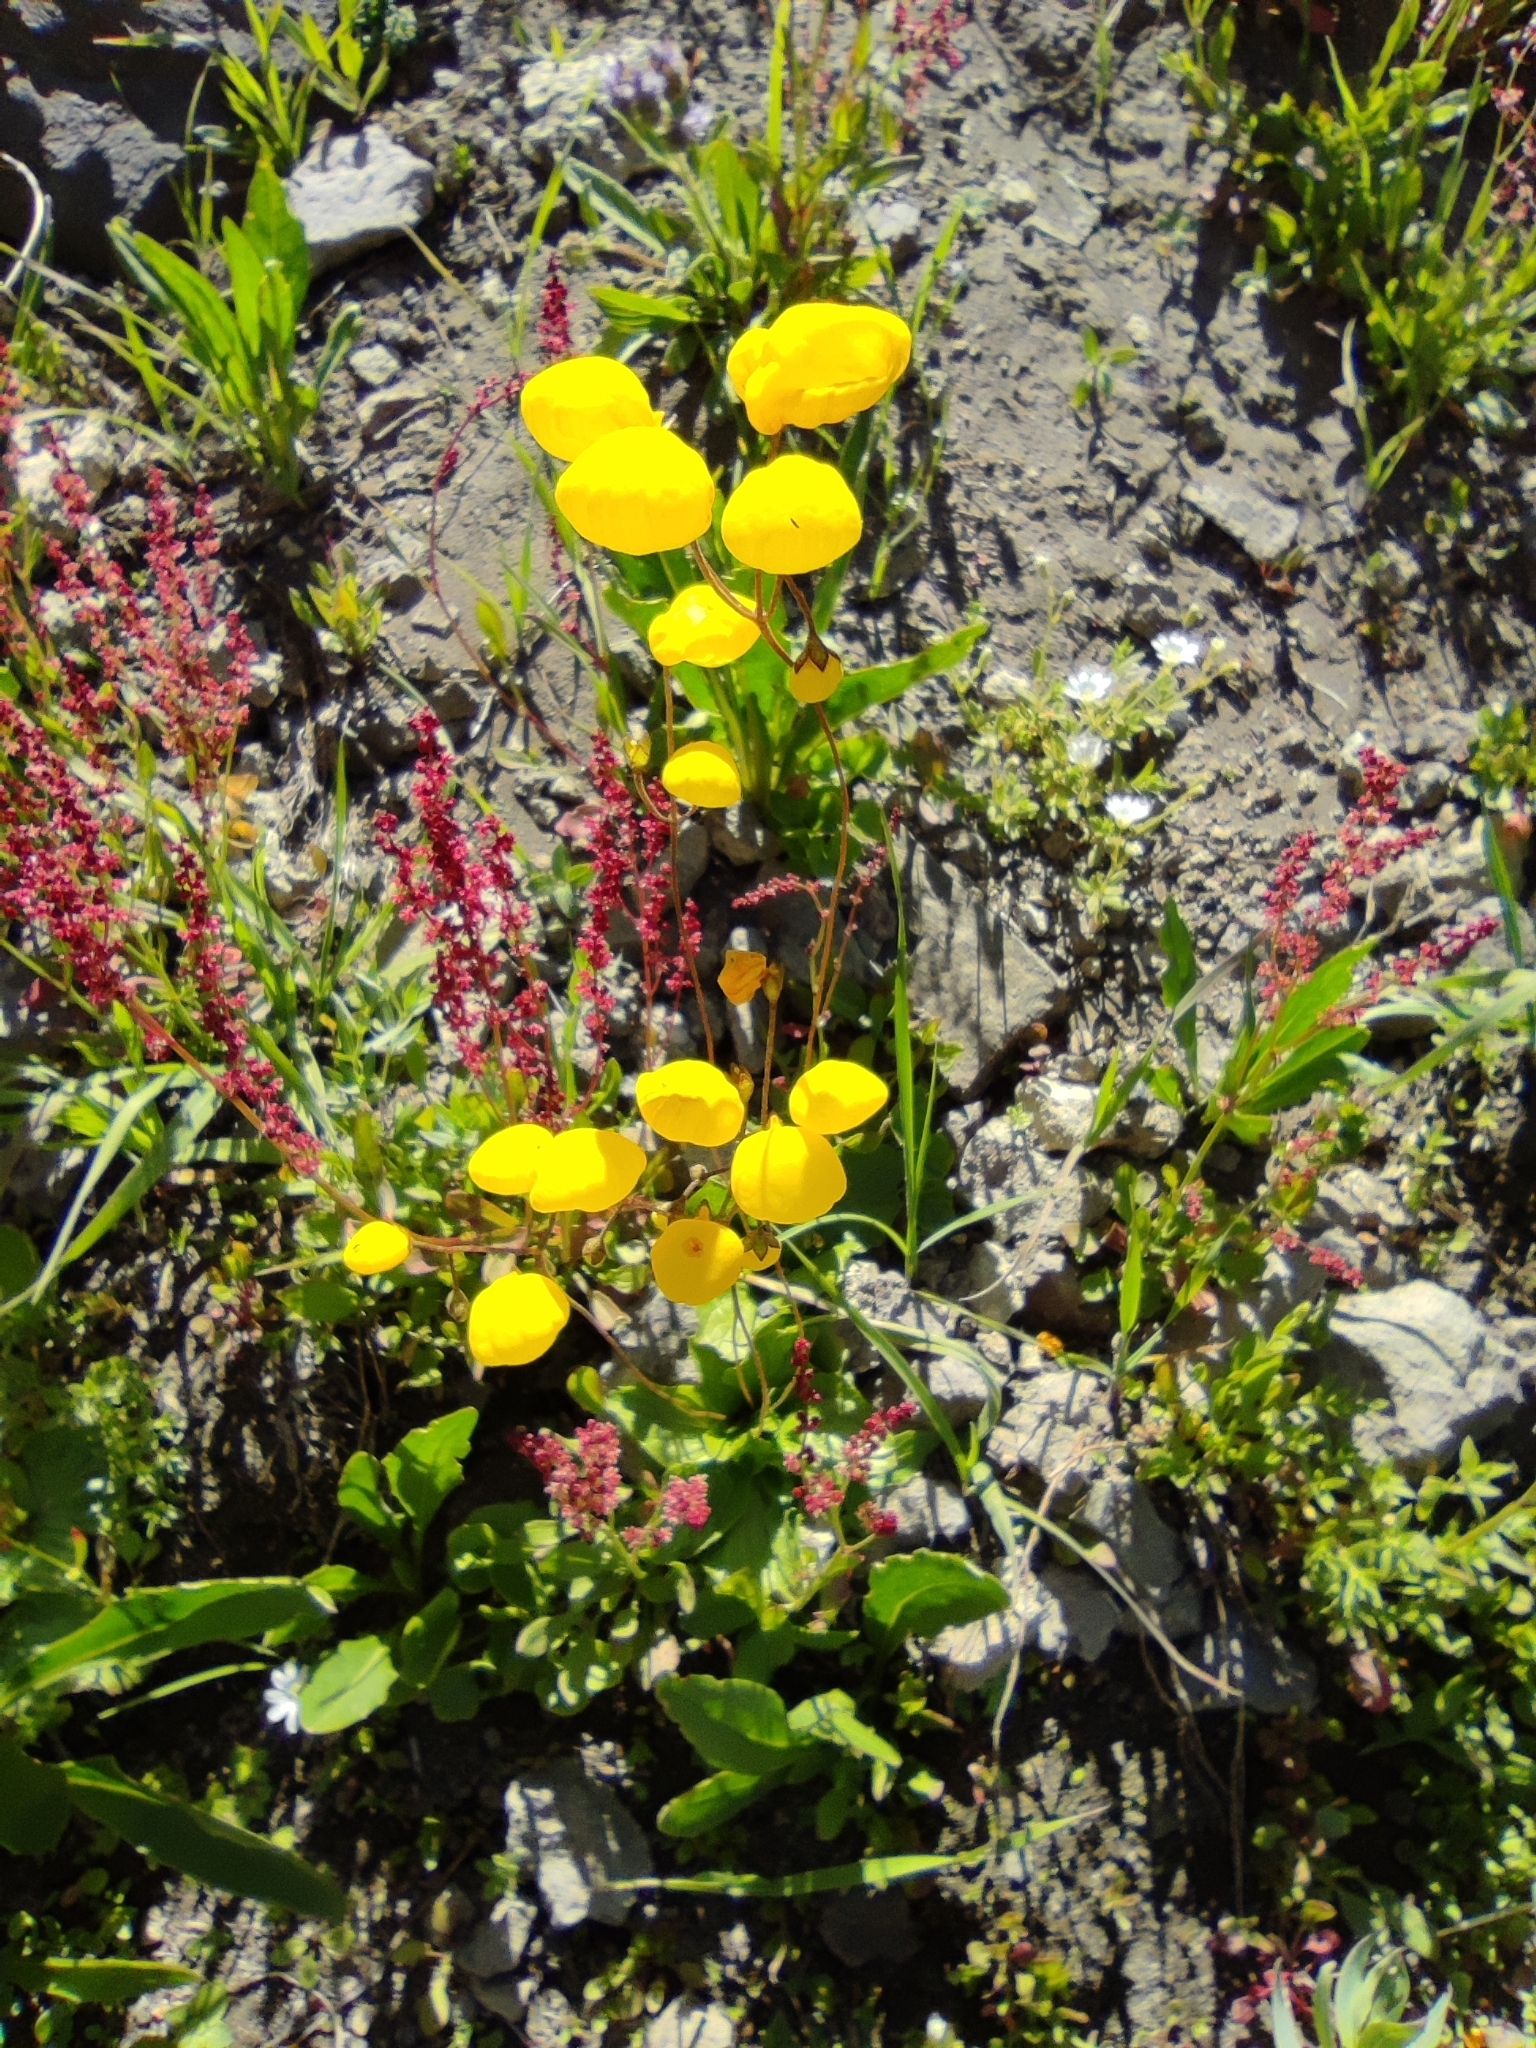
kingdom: Plantae
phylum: Tracheophyta
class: Magnoliopsida
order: Lamiales
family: Calceolariaceae
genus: Calceolaria
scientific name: Calceolaria filicaulis
